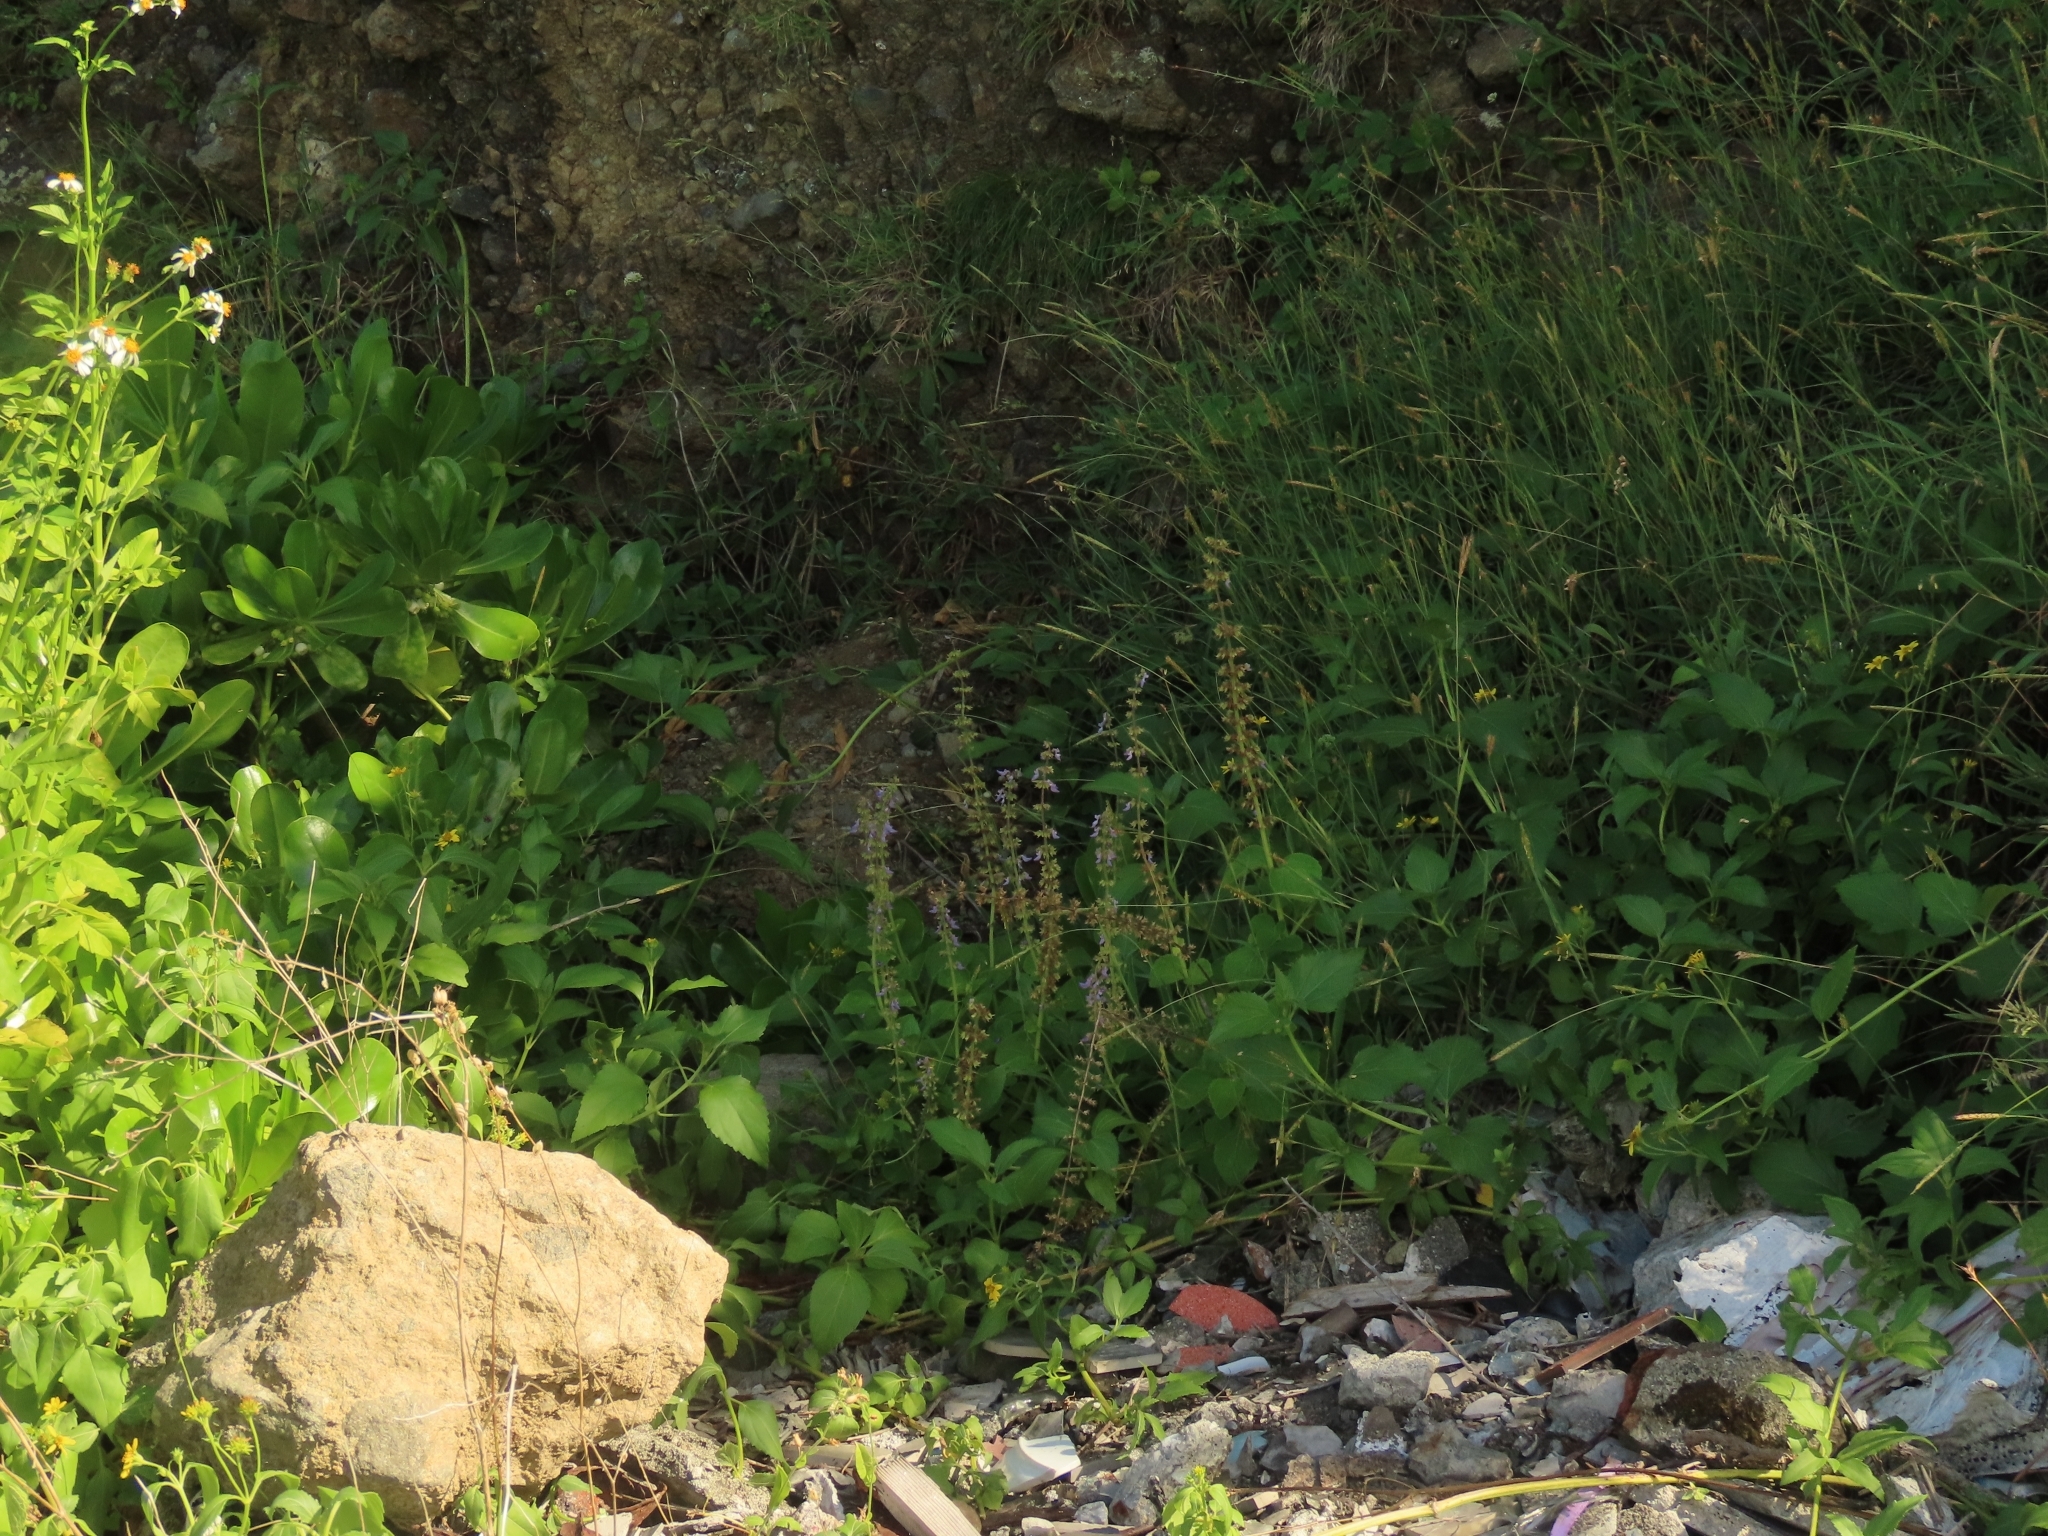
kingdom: Plantae
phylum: Tracheophyta
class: Magnoliopsida
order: Lamiales
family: Lamiaceae
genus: Coleus
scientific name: Coleus scutellarioides
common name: Coleus
